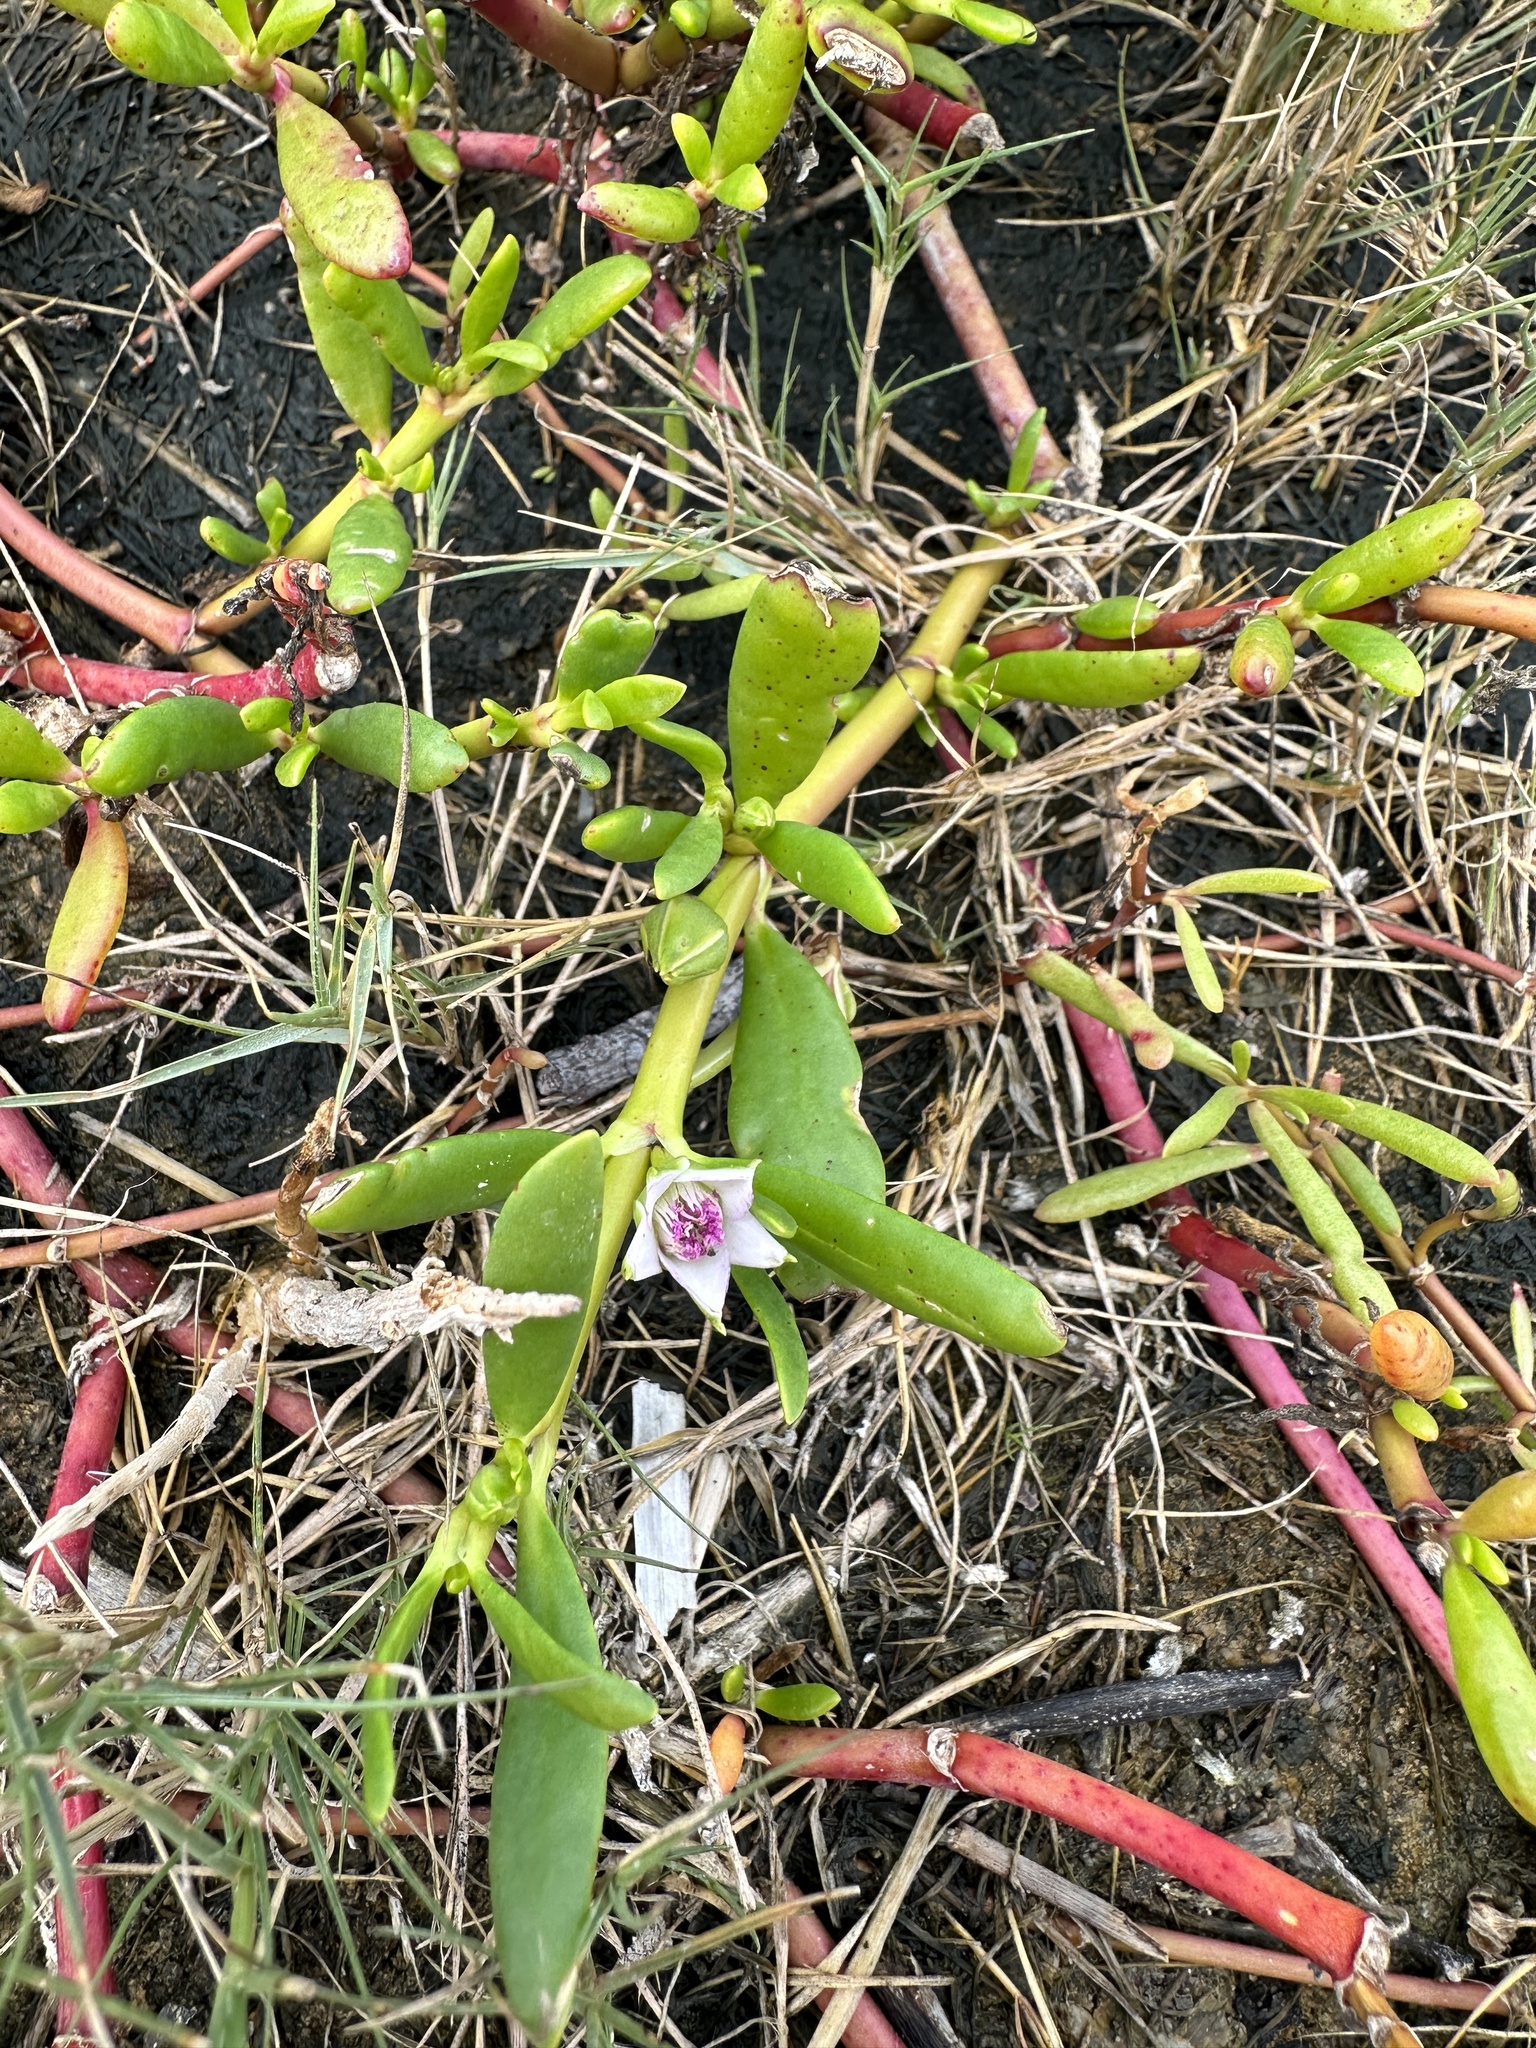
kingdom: Plantae
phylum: Tracheophyta
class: Magnoliopsida
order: Caryophyllales
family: Aizoaceae
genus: Sesuvium
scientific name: Sesuvium portulacastrum
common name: Sea-purslane
